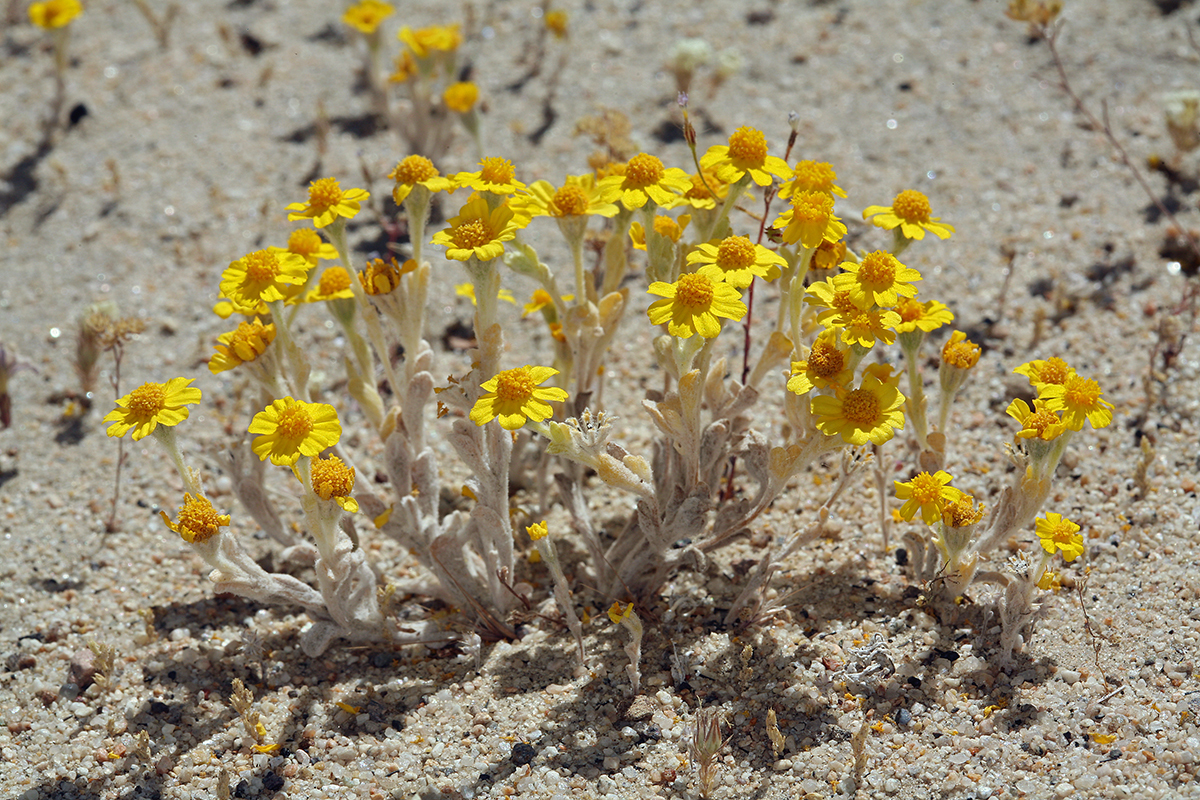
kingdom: Plantae
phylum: Tracheophyta
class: Magnoliopsida
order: Asterales
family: Asteraceae
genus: Eriophyllum
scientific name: Eriophyllum wallacei
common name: Wallace's woolly daisy
